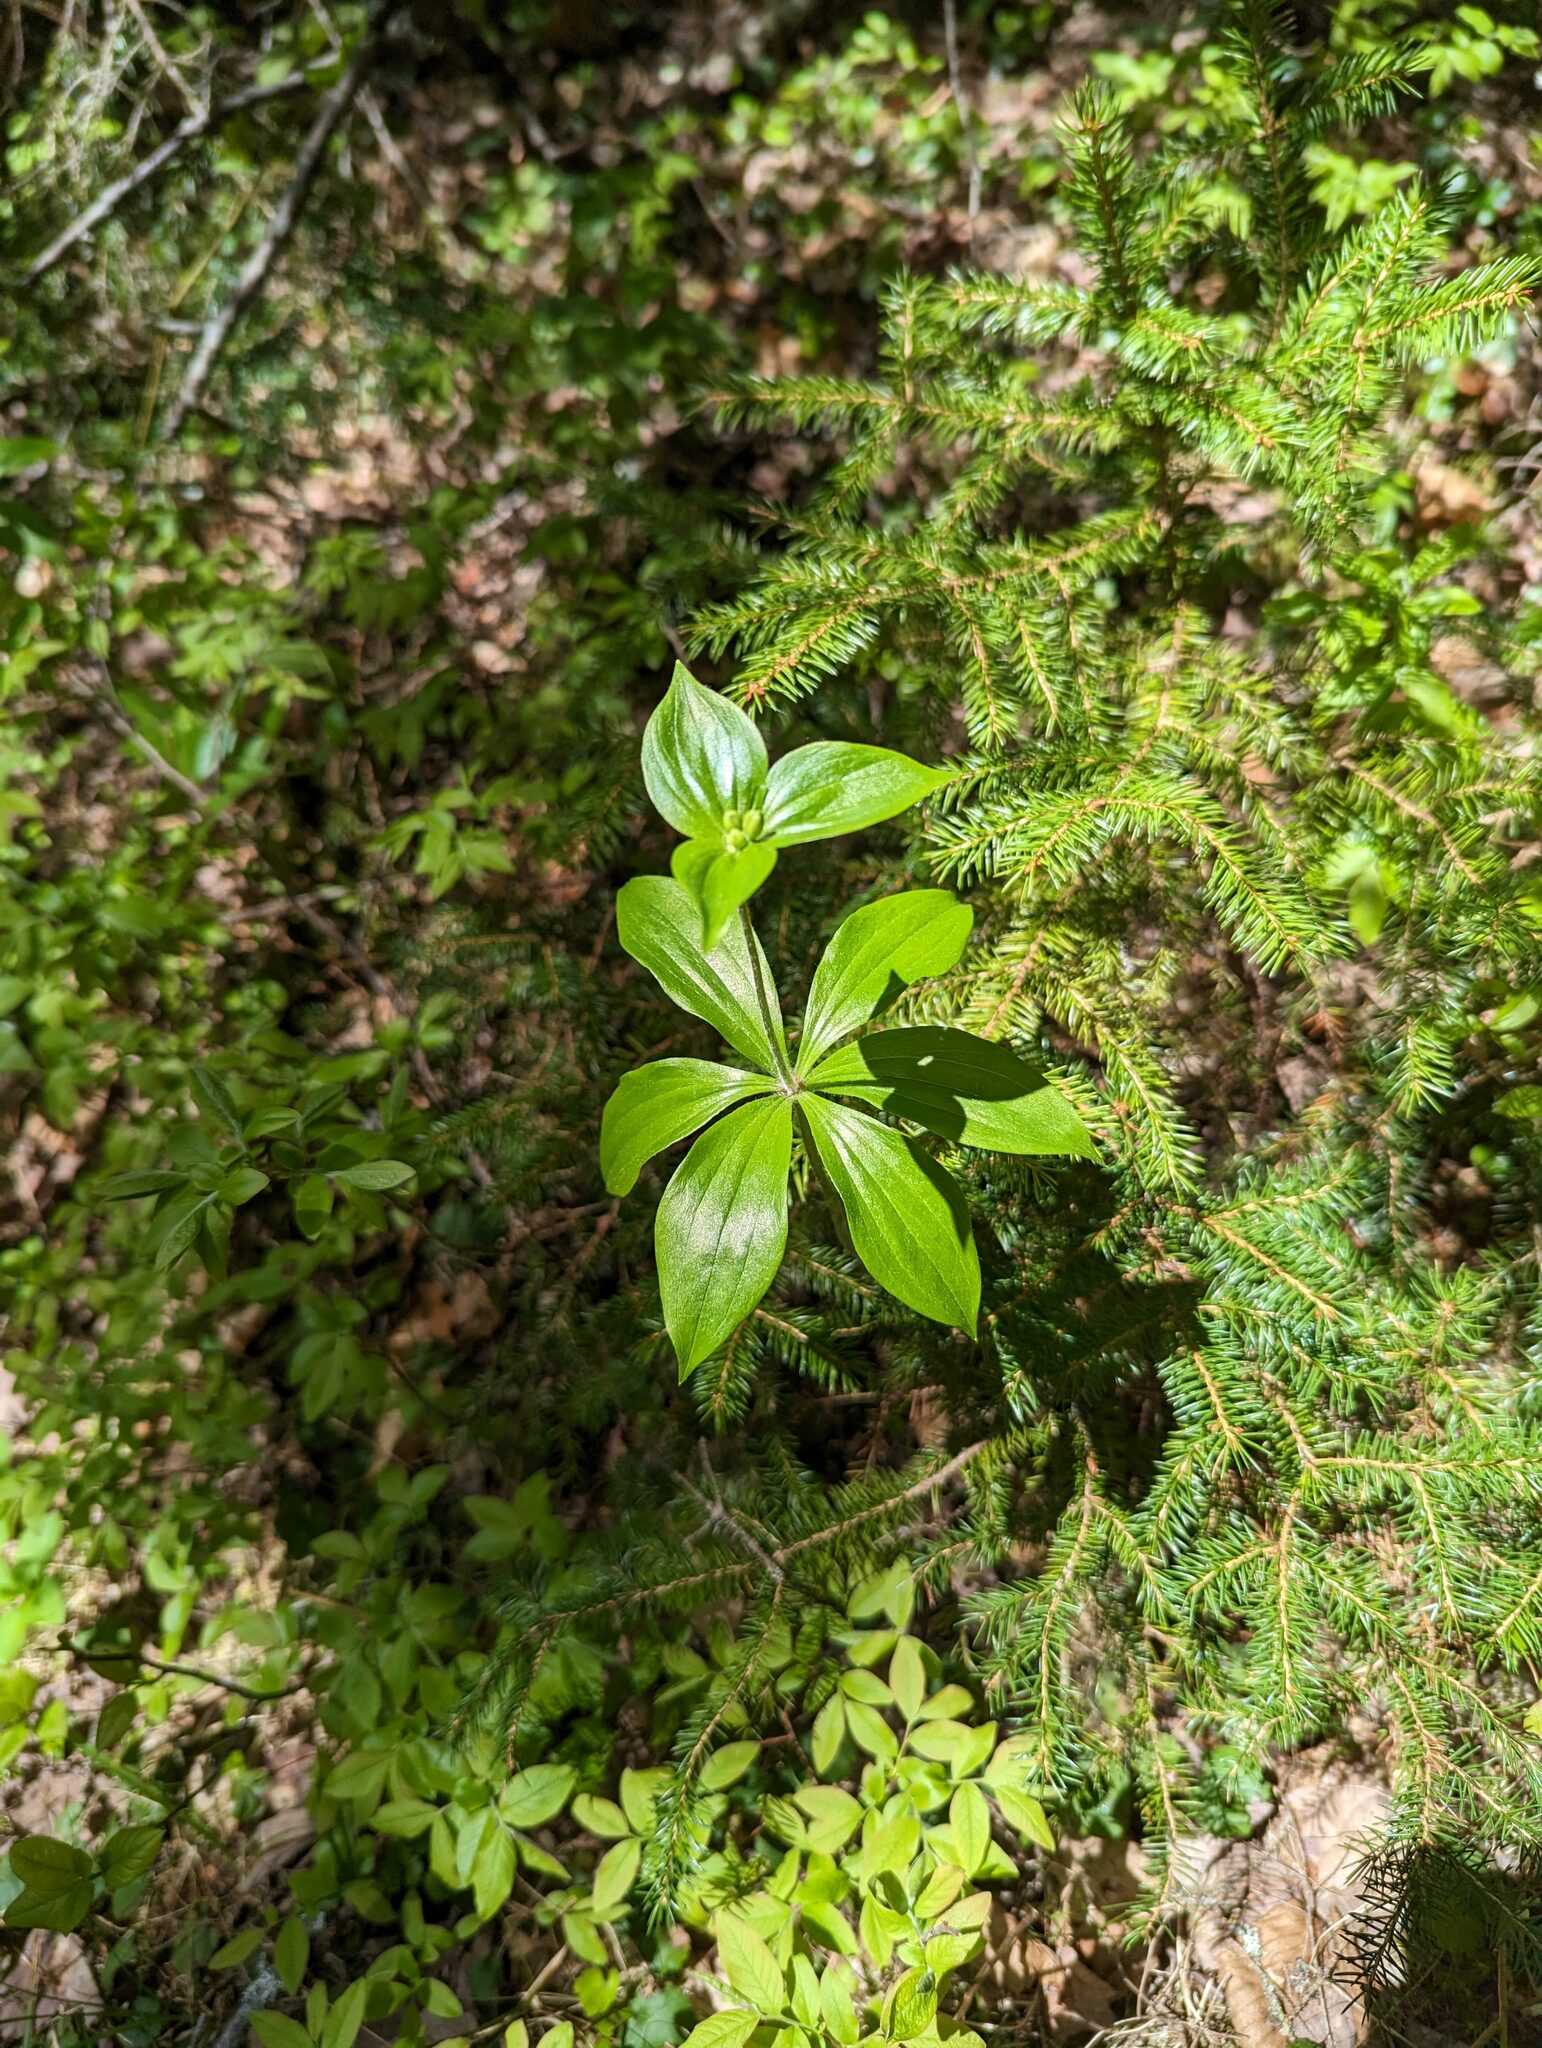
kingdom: Plantae
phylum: Tracheophyta
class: Liliopsida
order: Liliales
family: Liliaceae
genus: Medeola
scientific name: Medeola virginiana
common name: Indian cucumber-root
